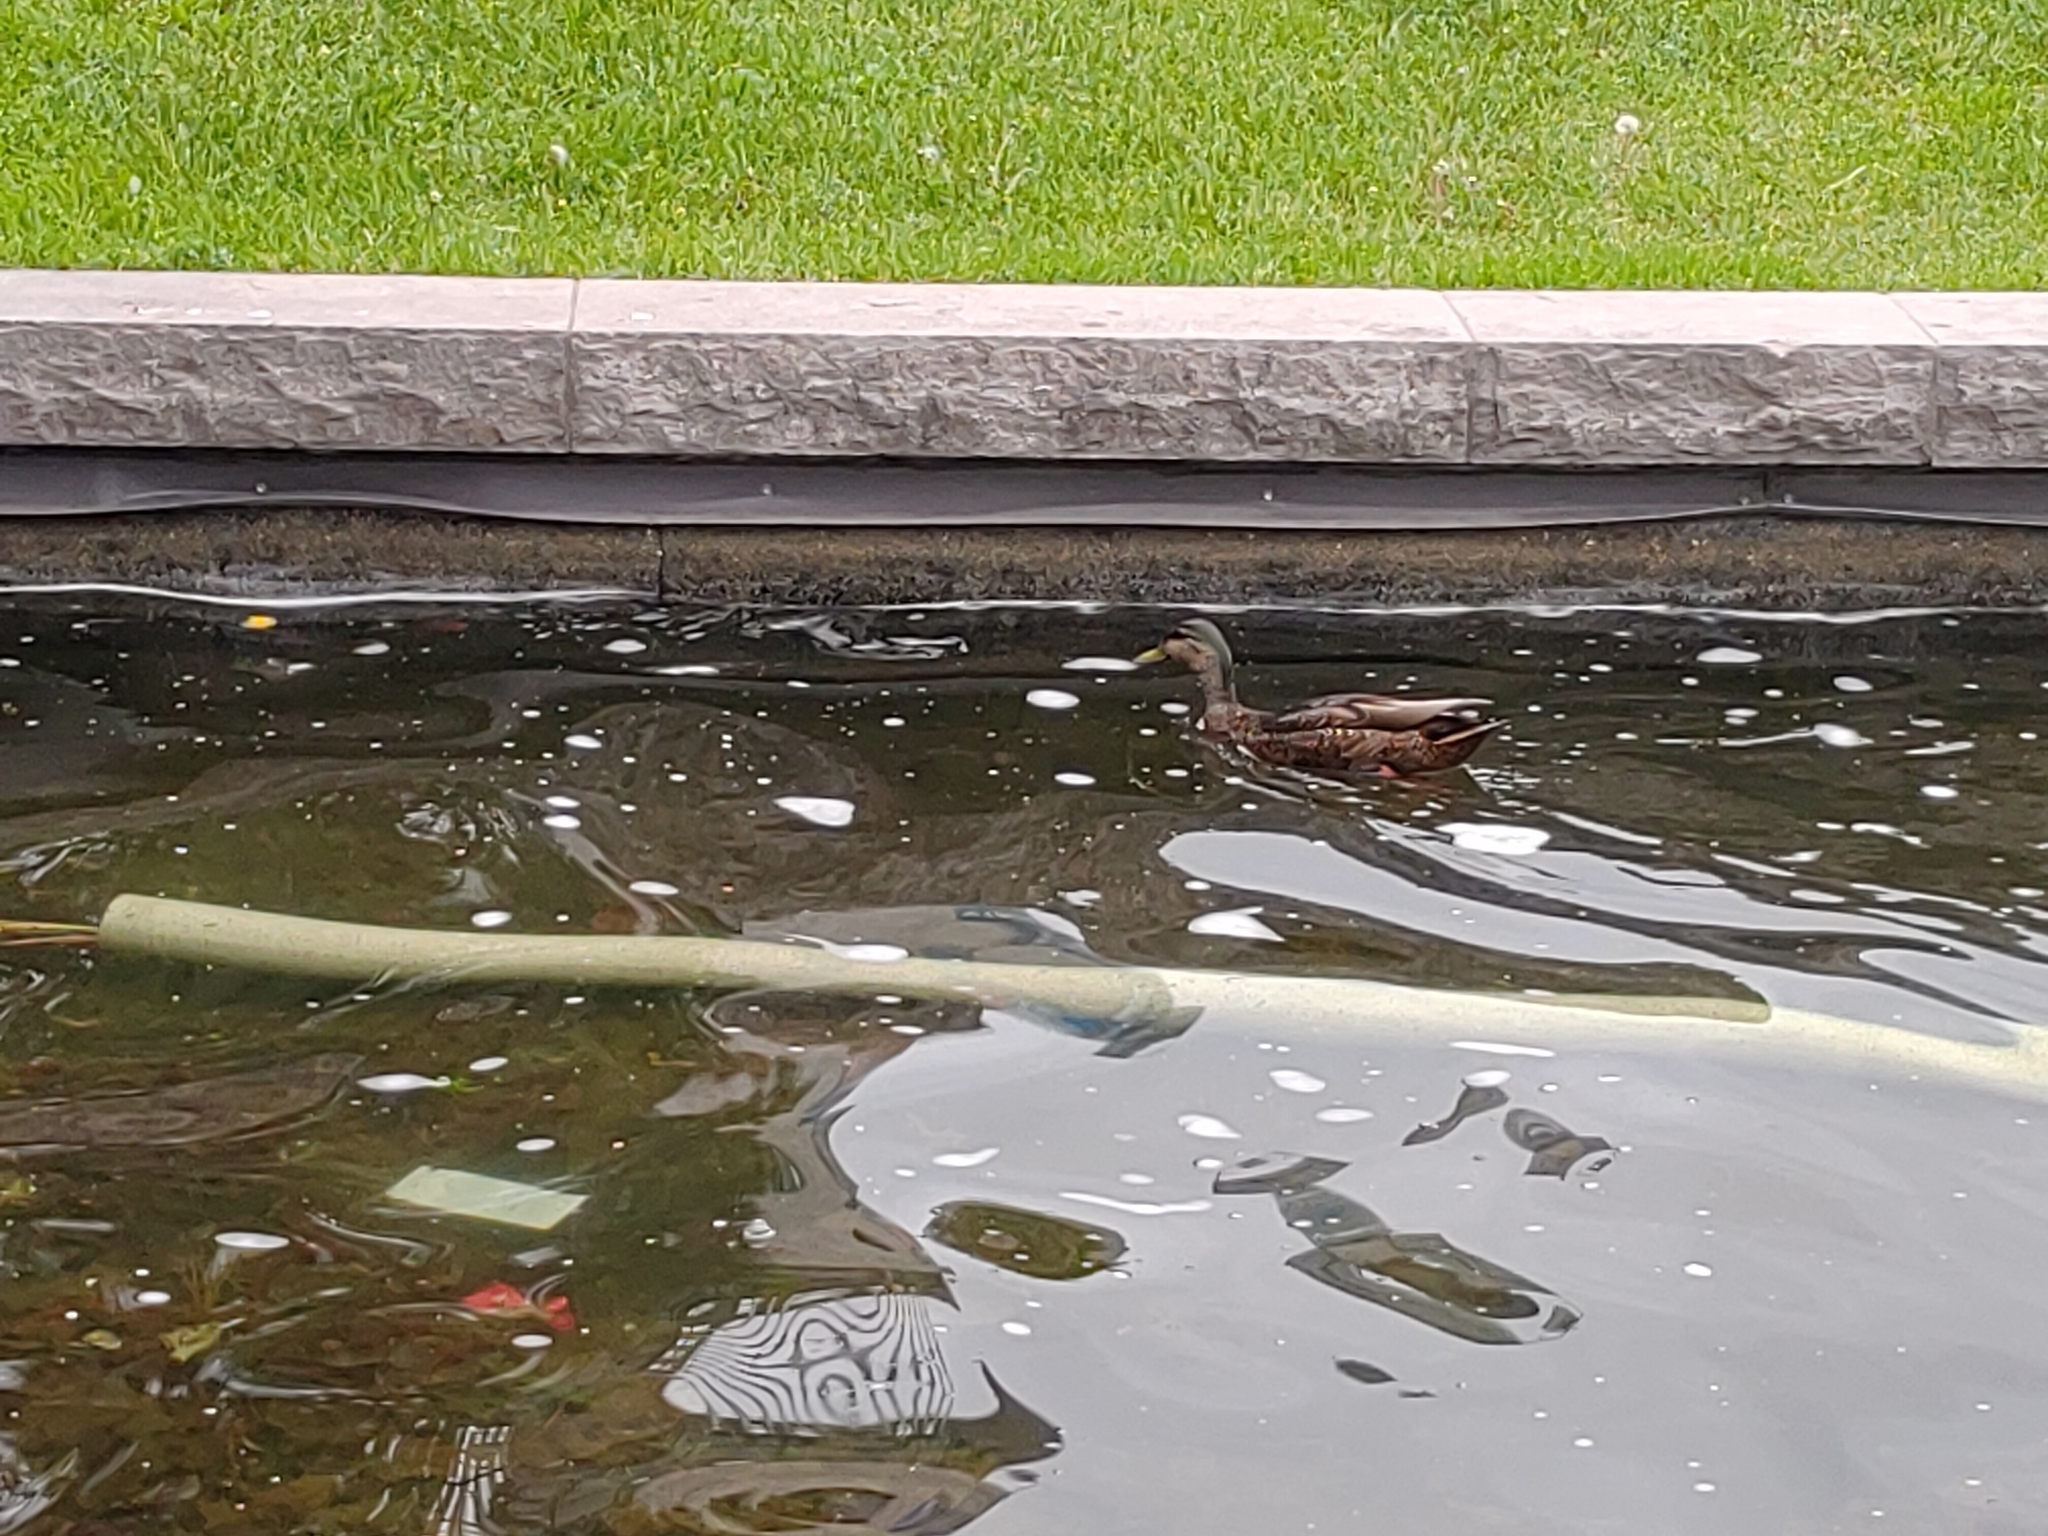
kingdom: Animalia
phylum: Chordata
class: Aves
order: Anseriformes
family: Anatidae
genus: Anas
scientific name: Anas platyrhynchos
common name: Mallard
